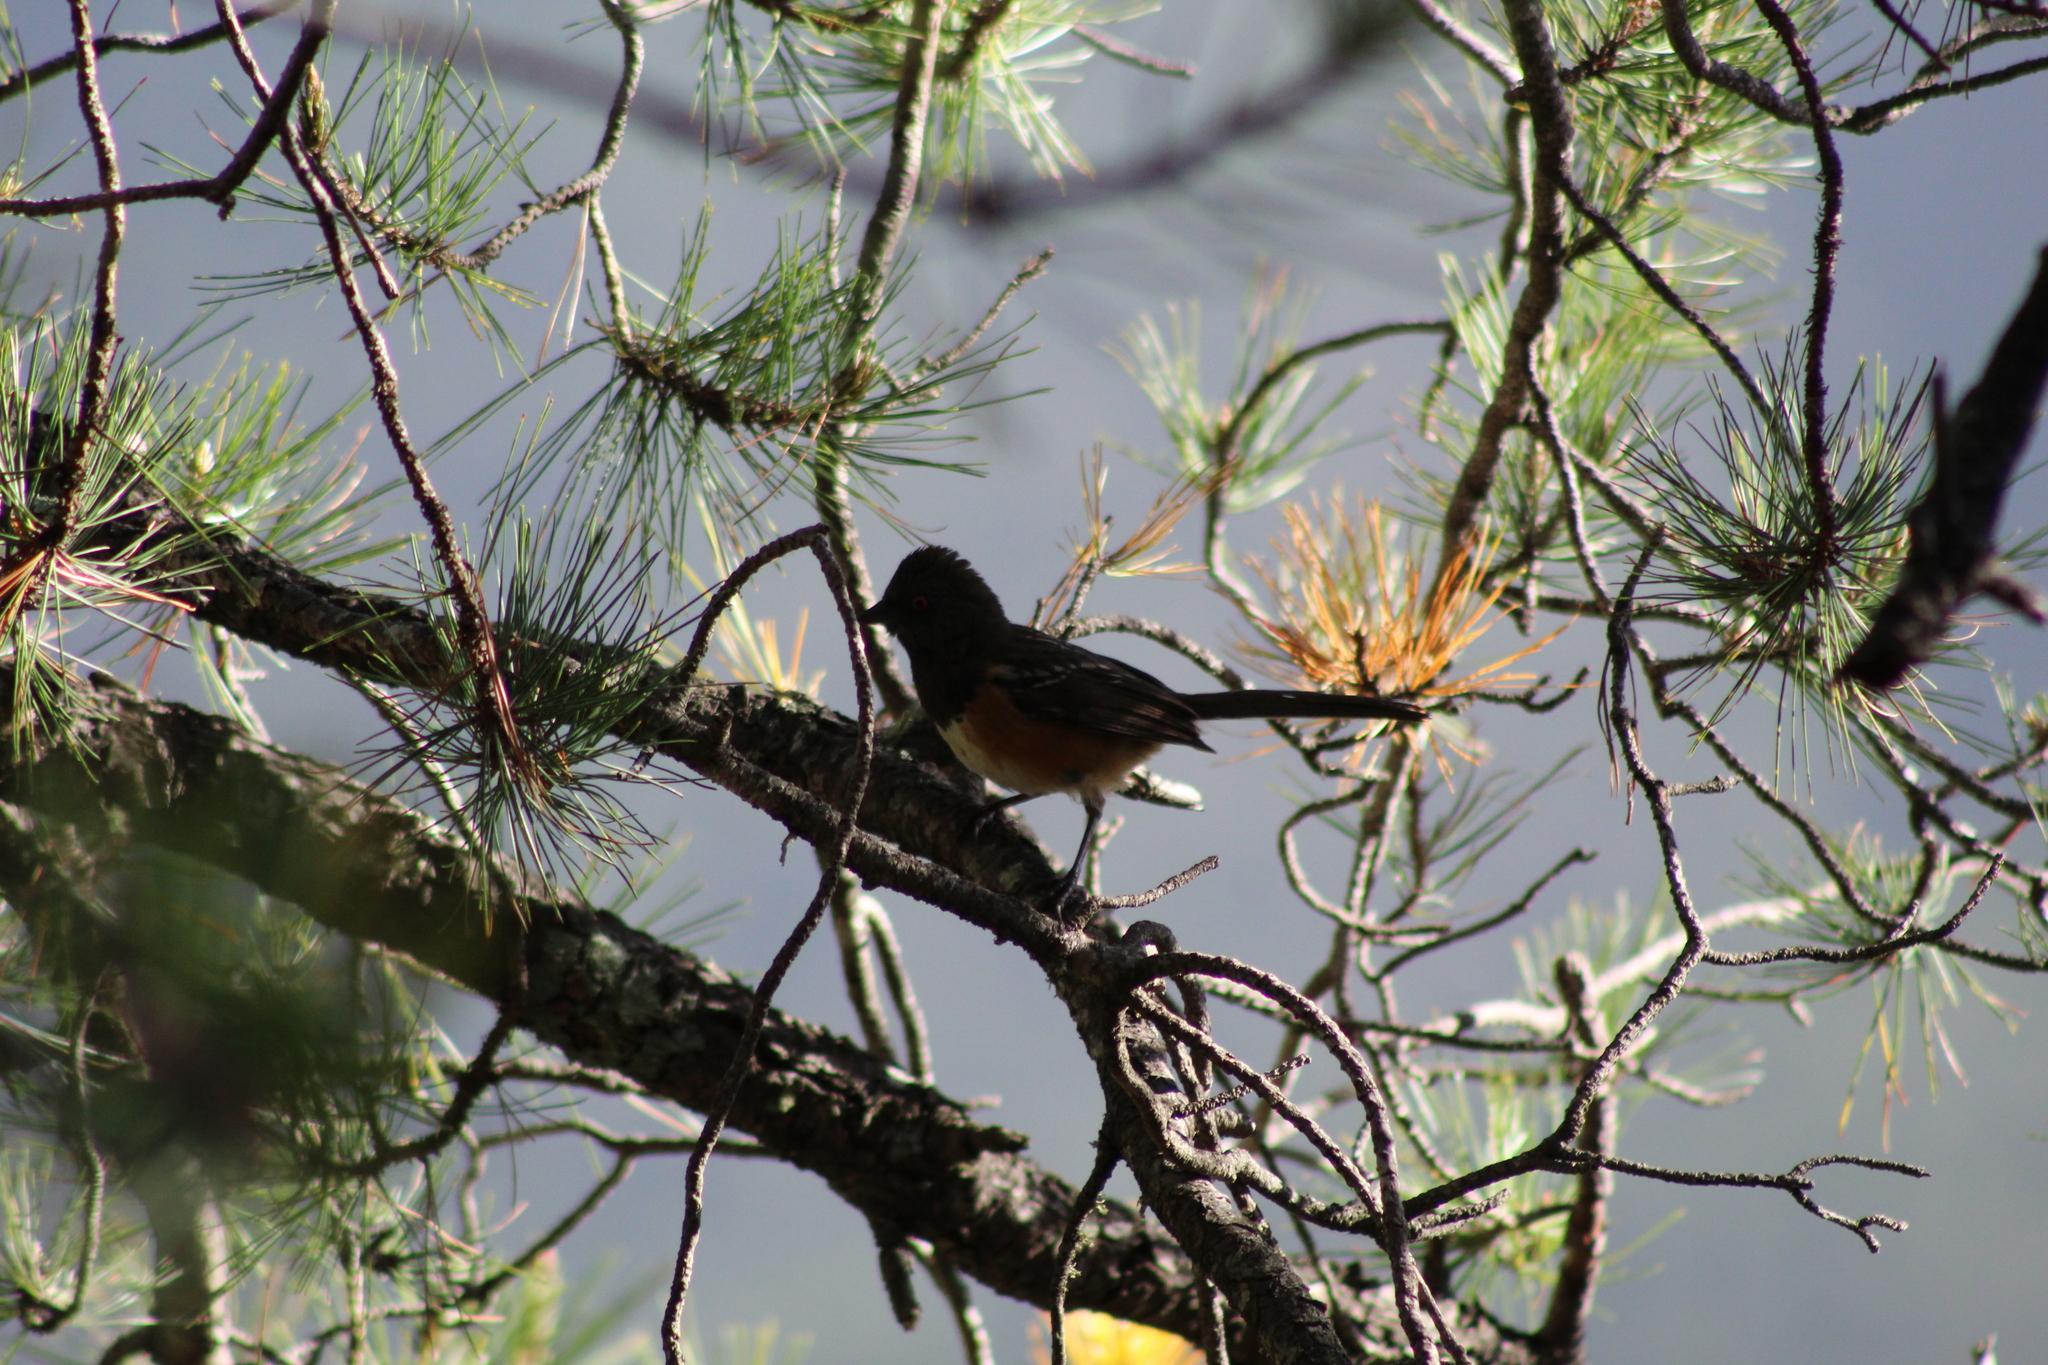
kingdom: Animalia
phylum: Chordata
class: Aves
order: Passeriformes
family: Passerellidae
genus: Pipilo
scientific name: Pipilo maculatus
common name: Spotted towhee
